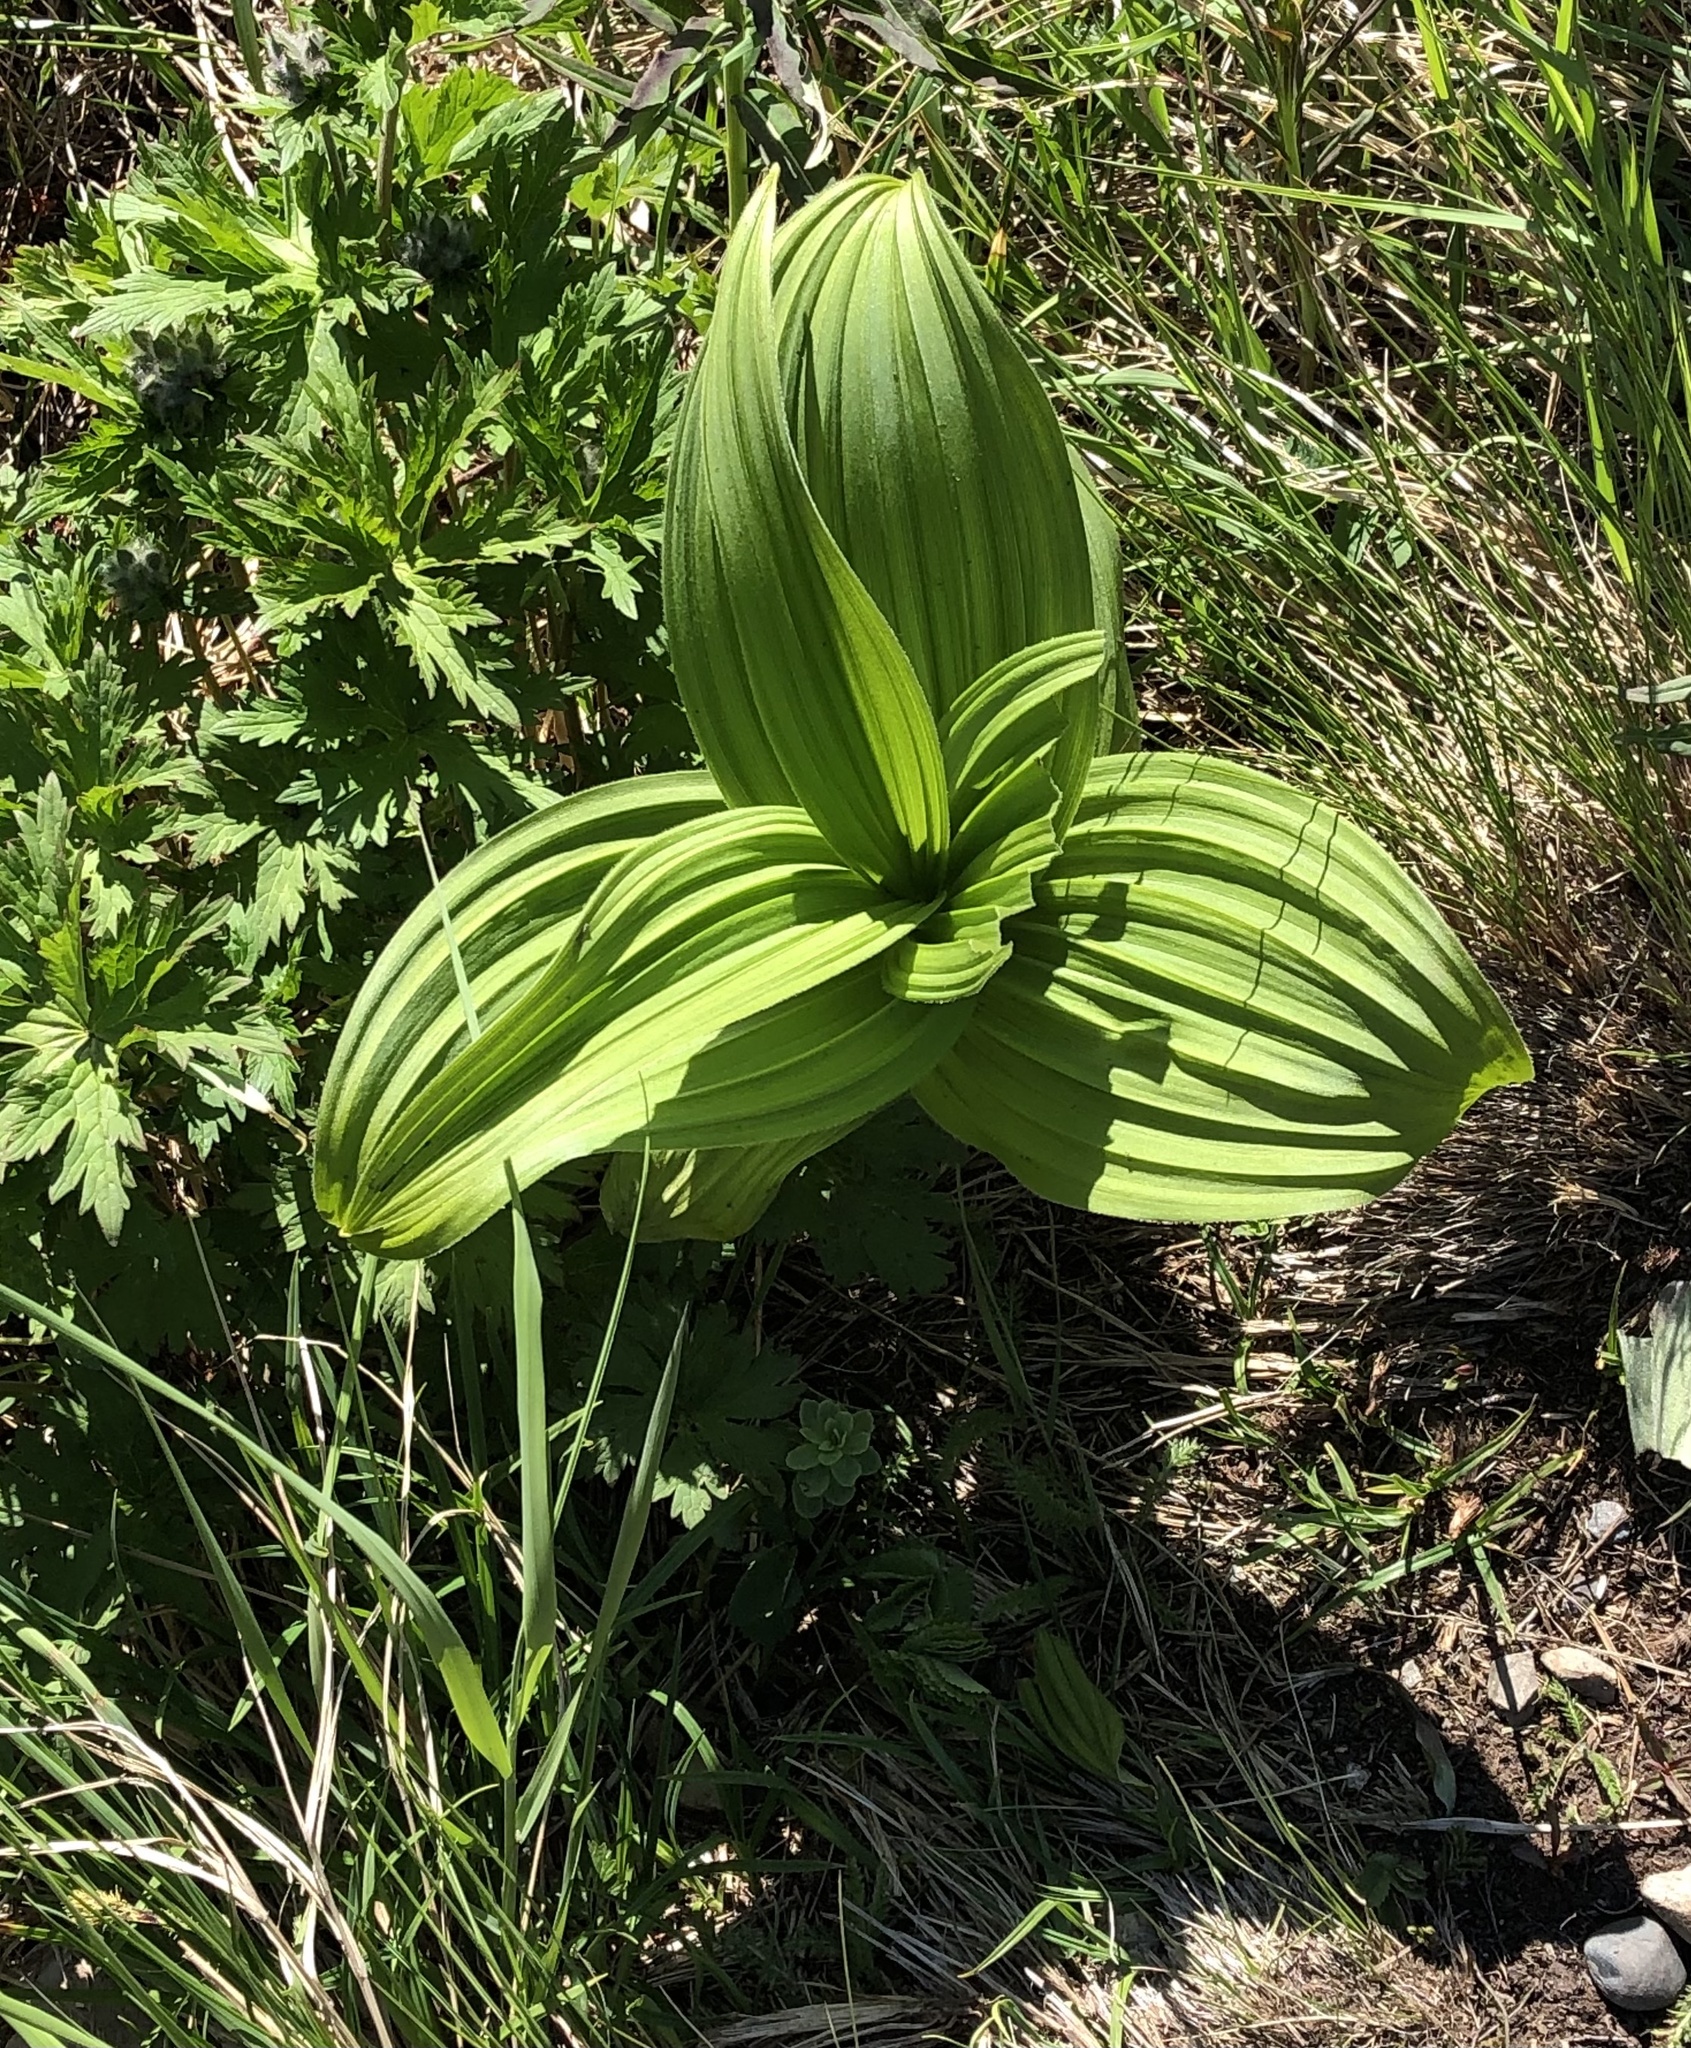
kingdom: Plantae
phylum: Tracheophyta
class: Liliopsida
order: Liliales
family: Melanthiaceae
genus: Veratrum
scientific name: Veratrum viride
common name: American false hellebore
